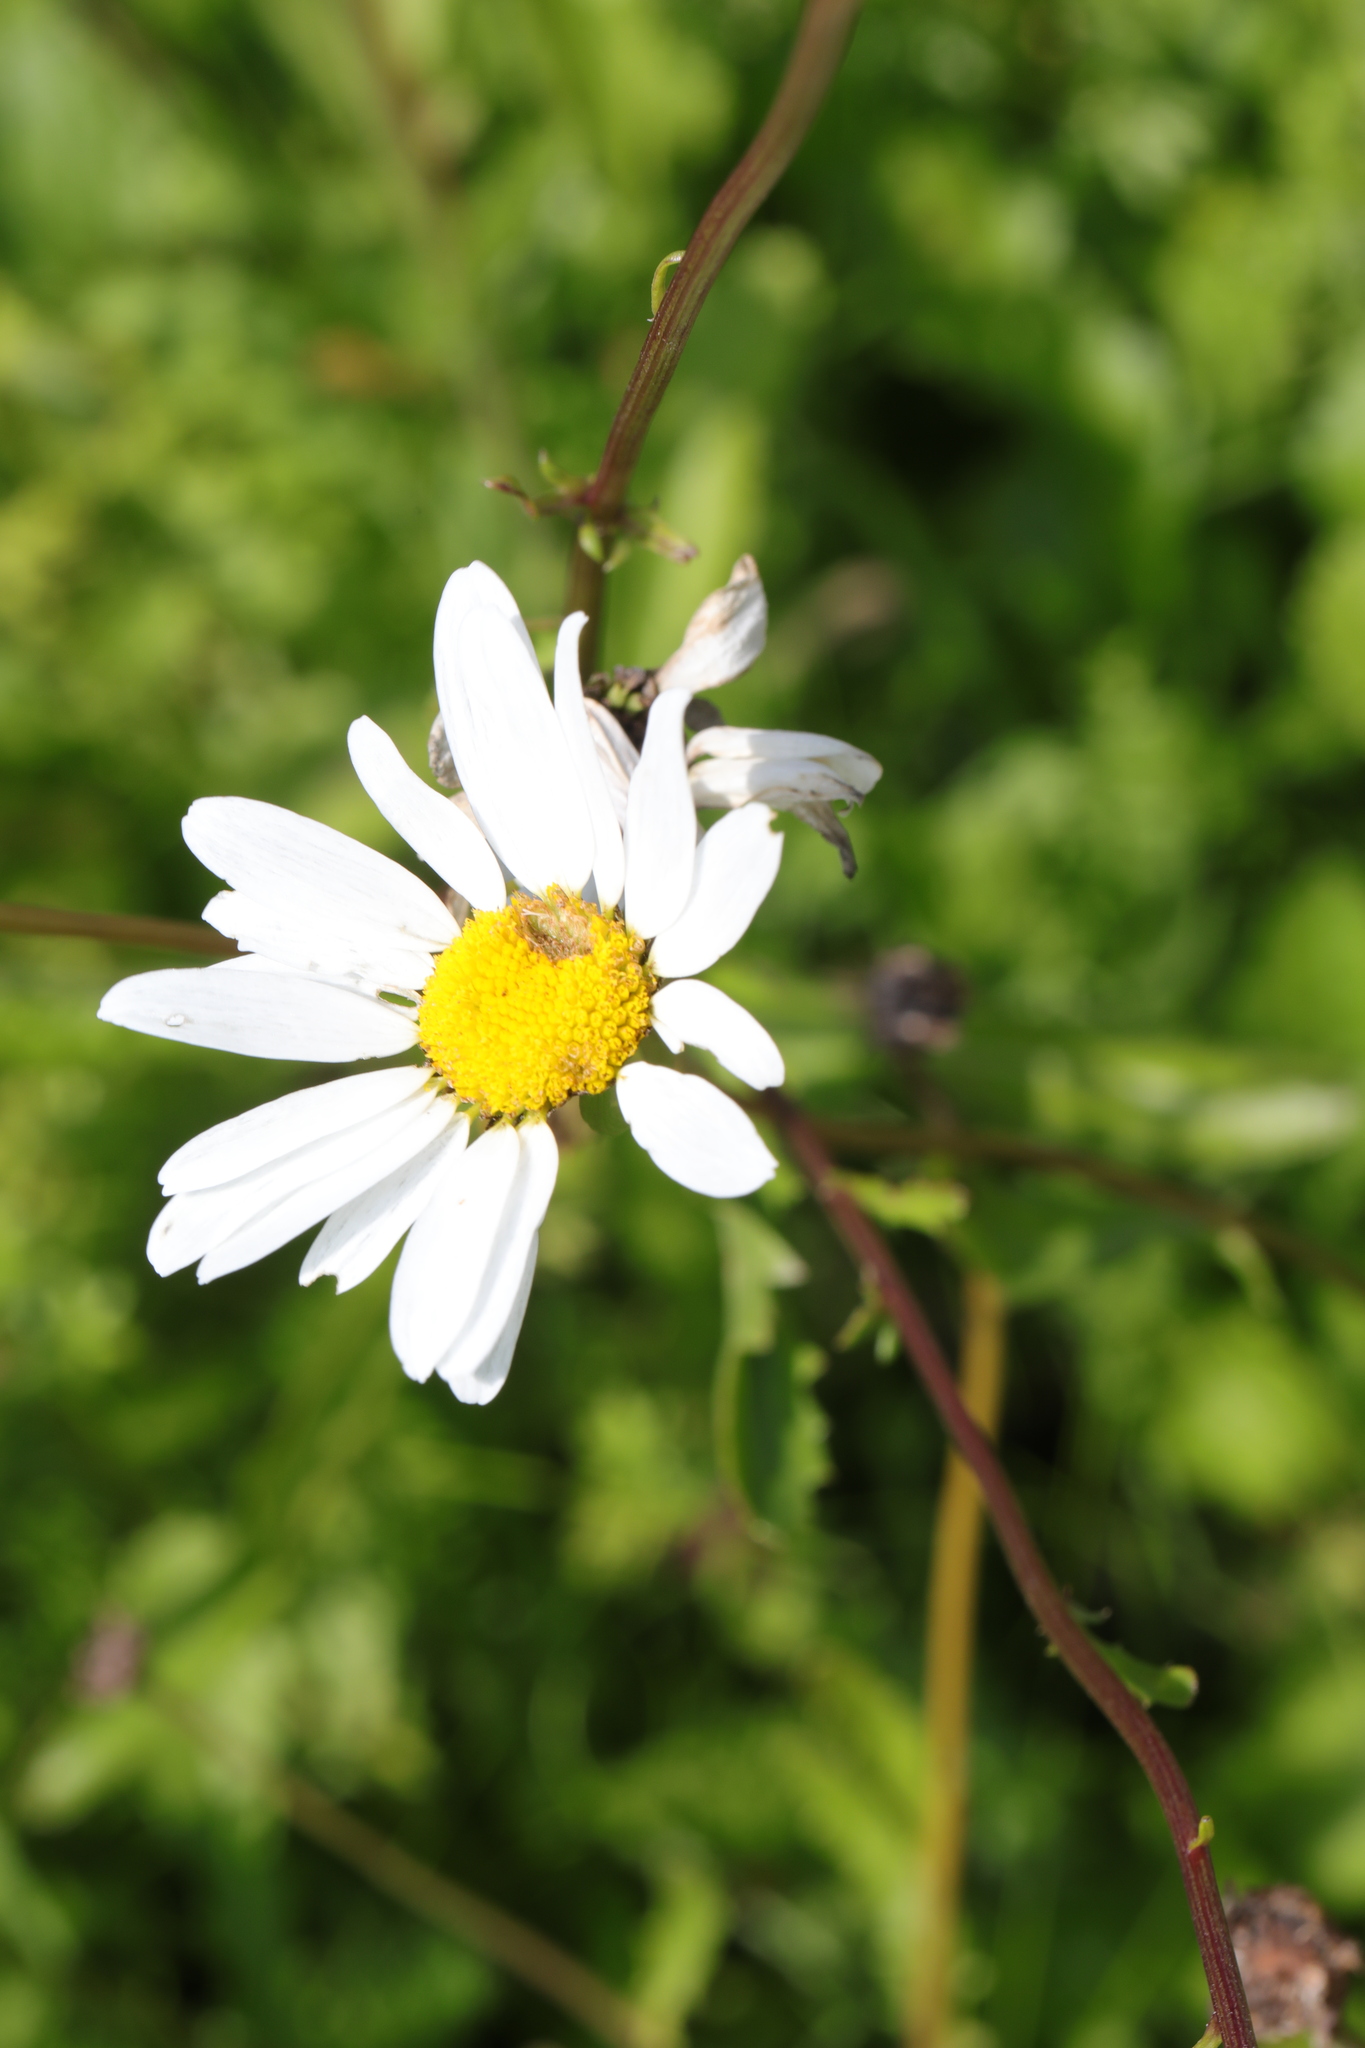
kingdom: Plantae
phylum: Tracheophyta
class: Magnoliopsida
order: Asterales
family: Asteraceae
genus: Leucanthemum
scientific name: Leucanthemum vulgare
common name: Oxeye daisy
